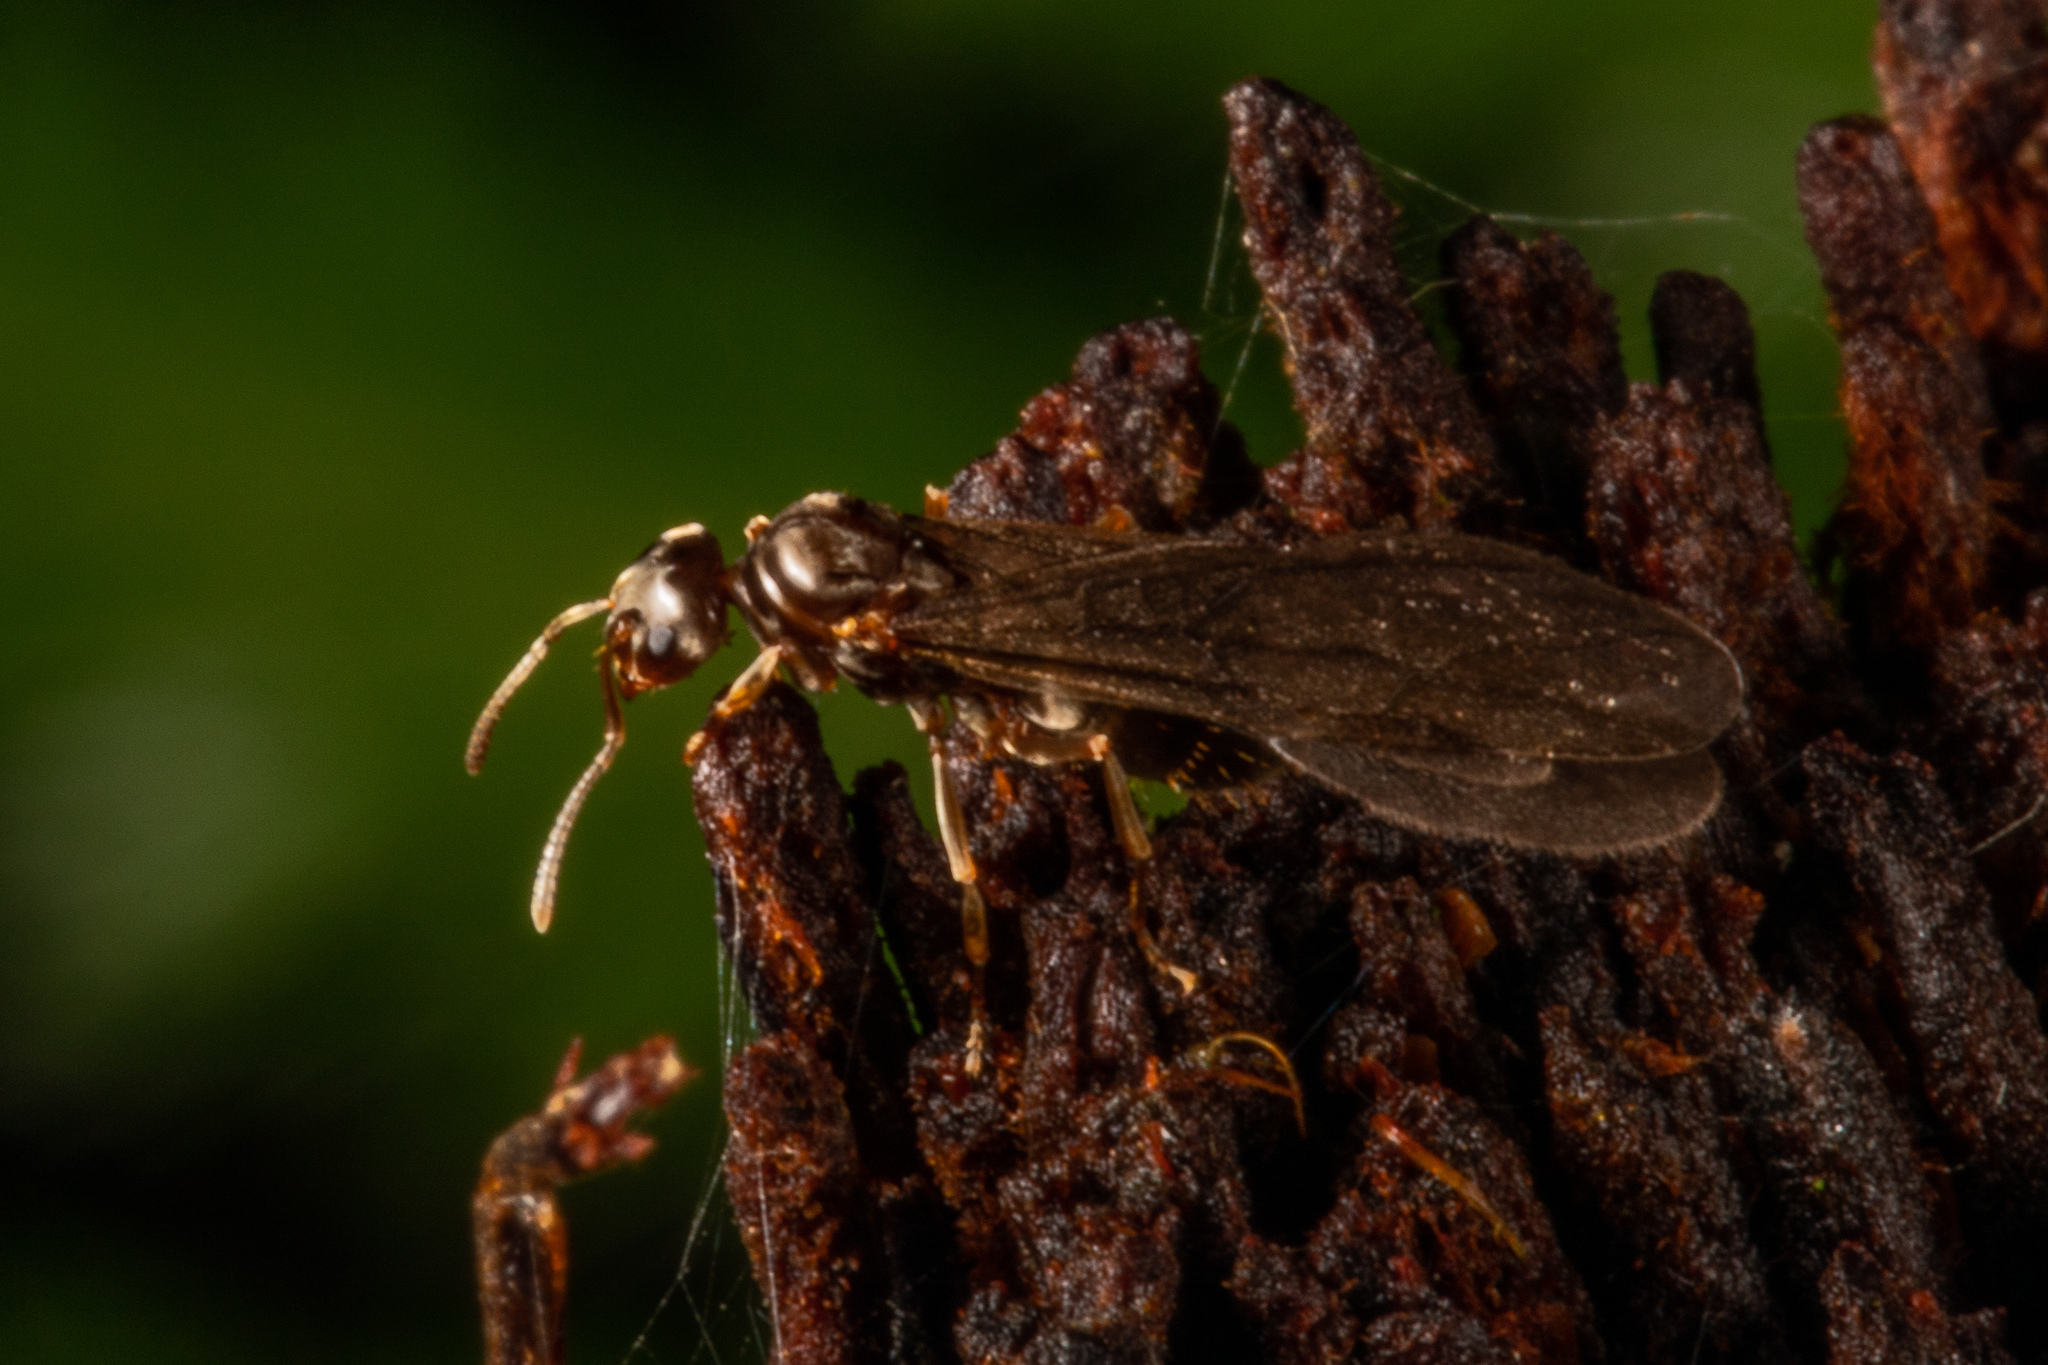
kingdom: Animalia
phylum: Arthropoda
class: Insecta
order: Hymenoptera
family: Formicidae
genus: Prolasius
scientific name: Prolasius advenus
